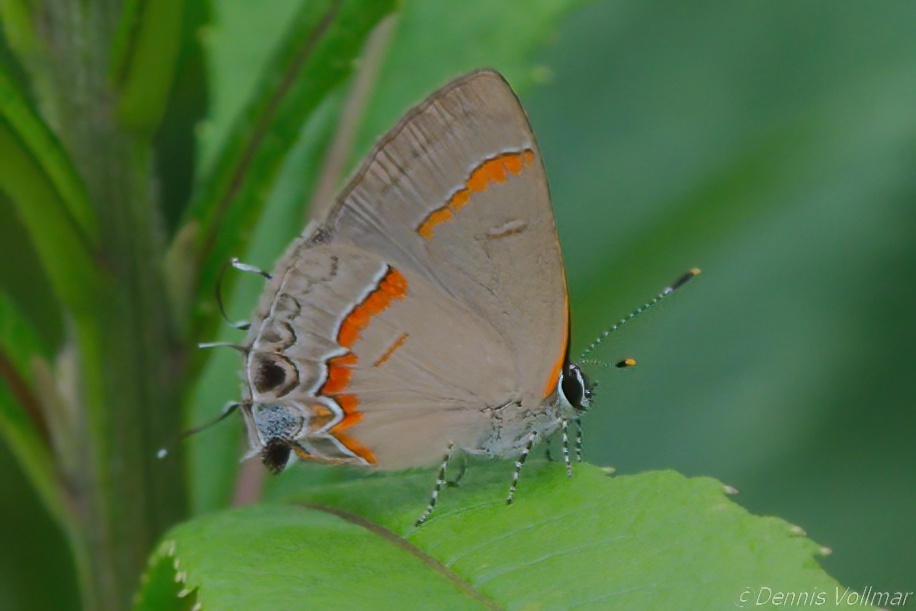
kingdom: Animalia
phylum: Arthropoda
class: Insecta
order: Lepidoptera
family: Lycaenidae
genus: Calycopis
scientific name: Calycopis cecrops
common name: Red-banded hairstreak
